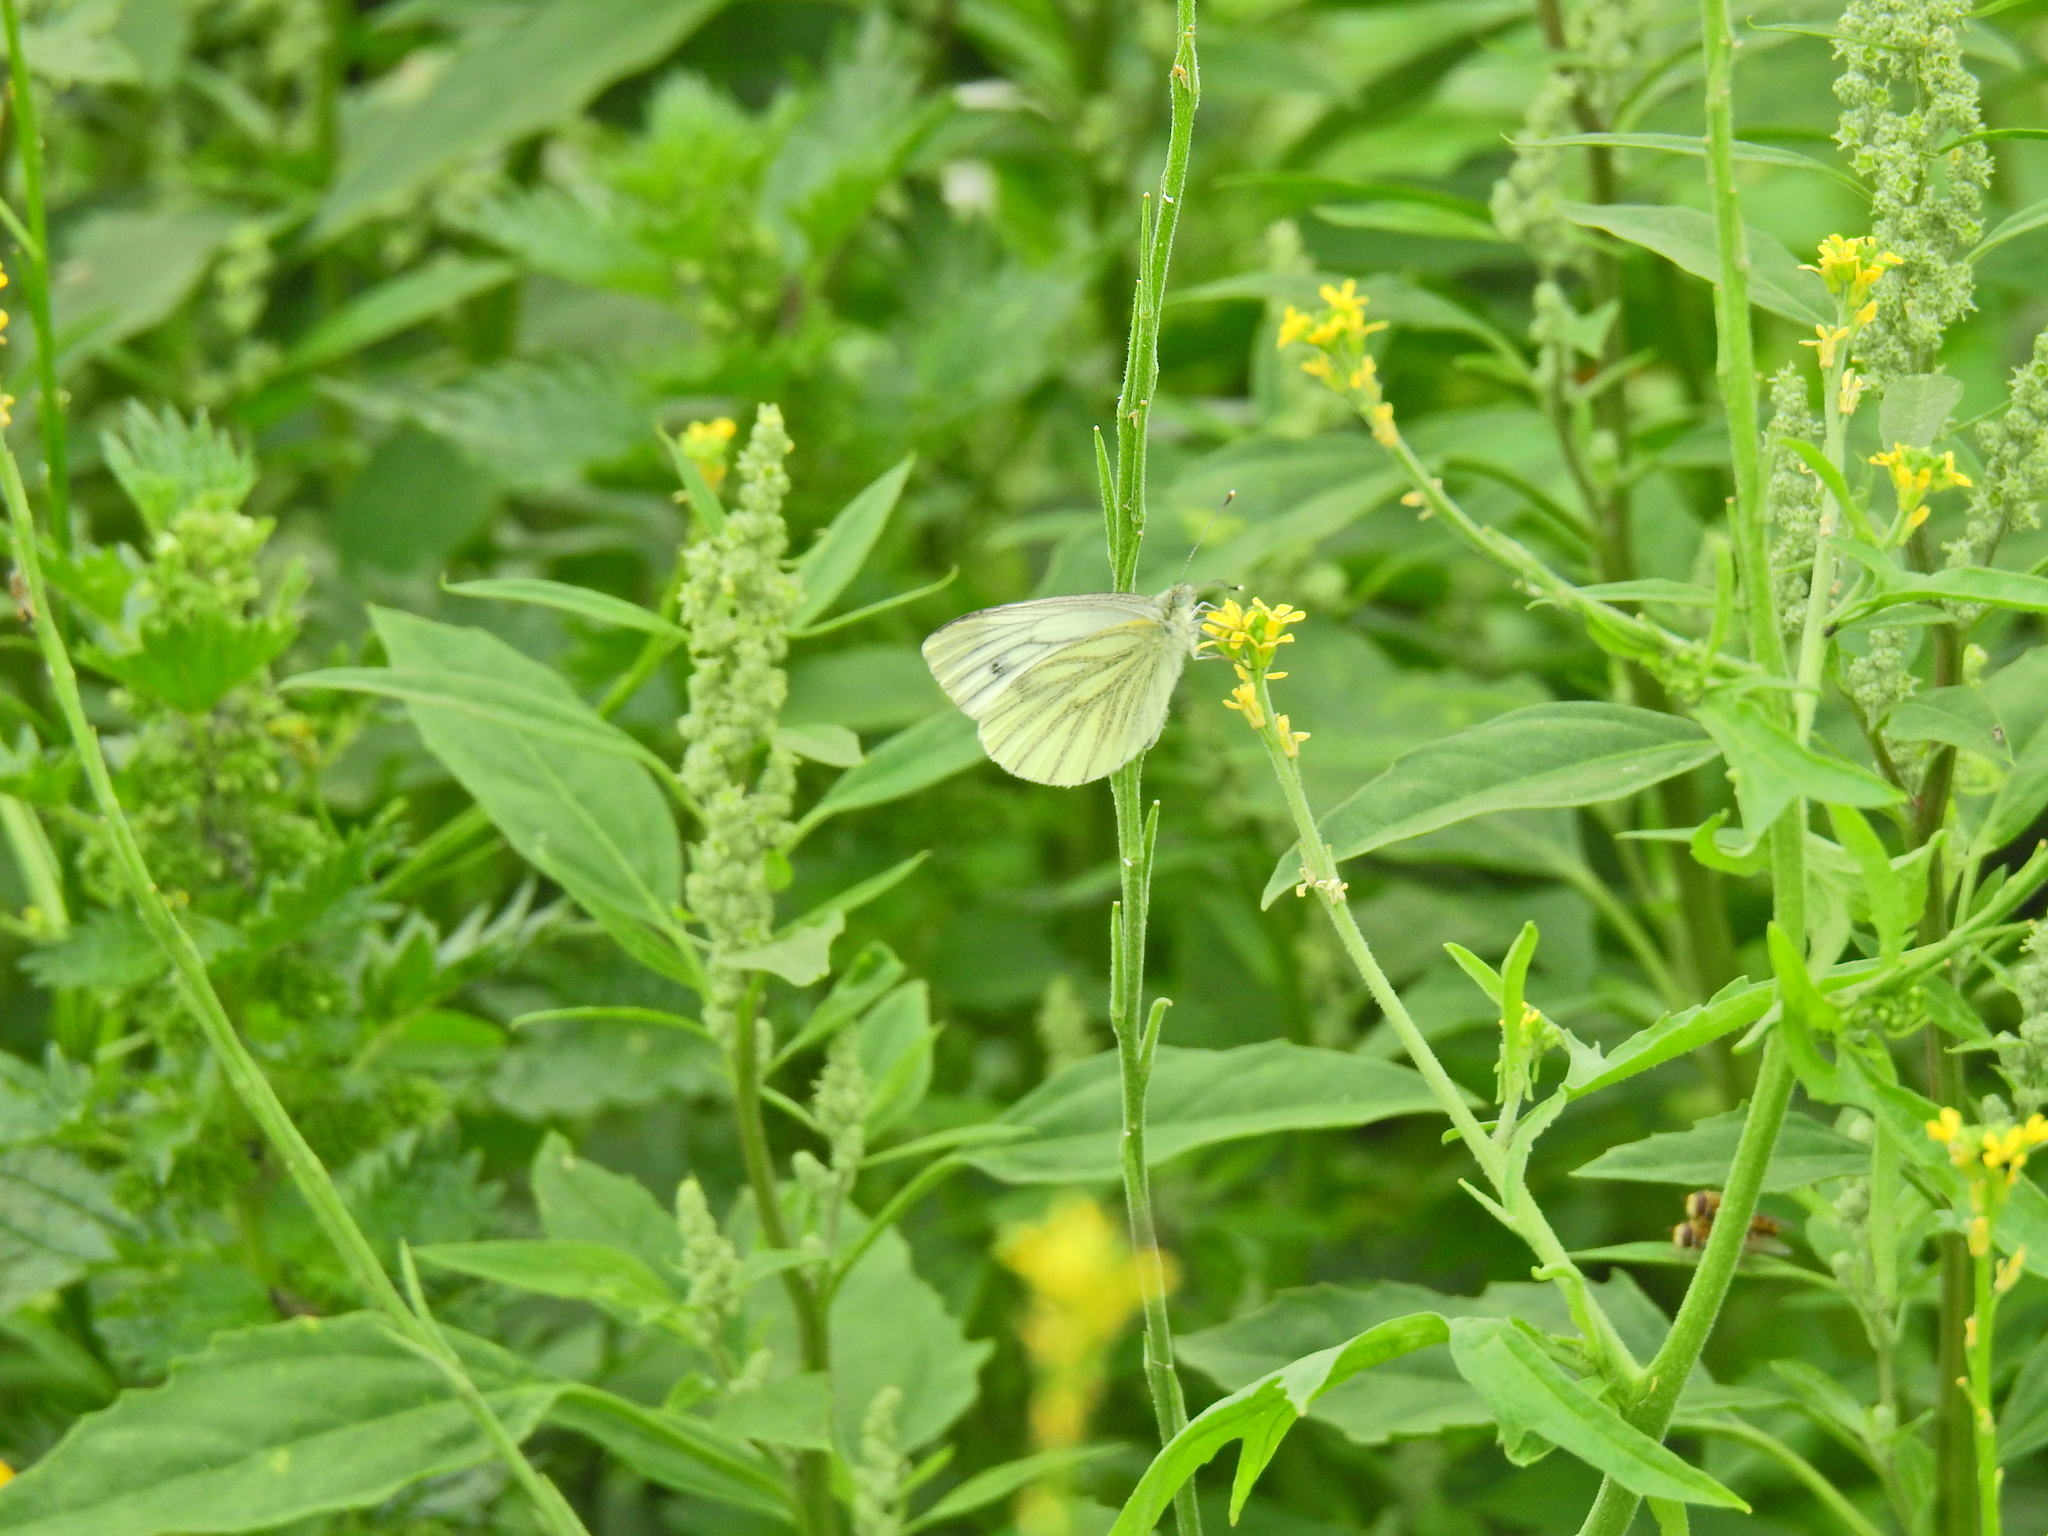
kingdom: Animalia
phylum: Arthropoda
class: Insecta
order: Lepidoptera
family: Pieridae
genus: Pieris
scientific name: Pieris napi
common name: Green-veined white
